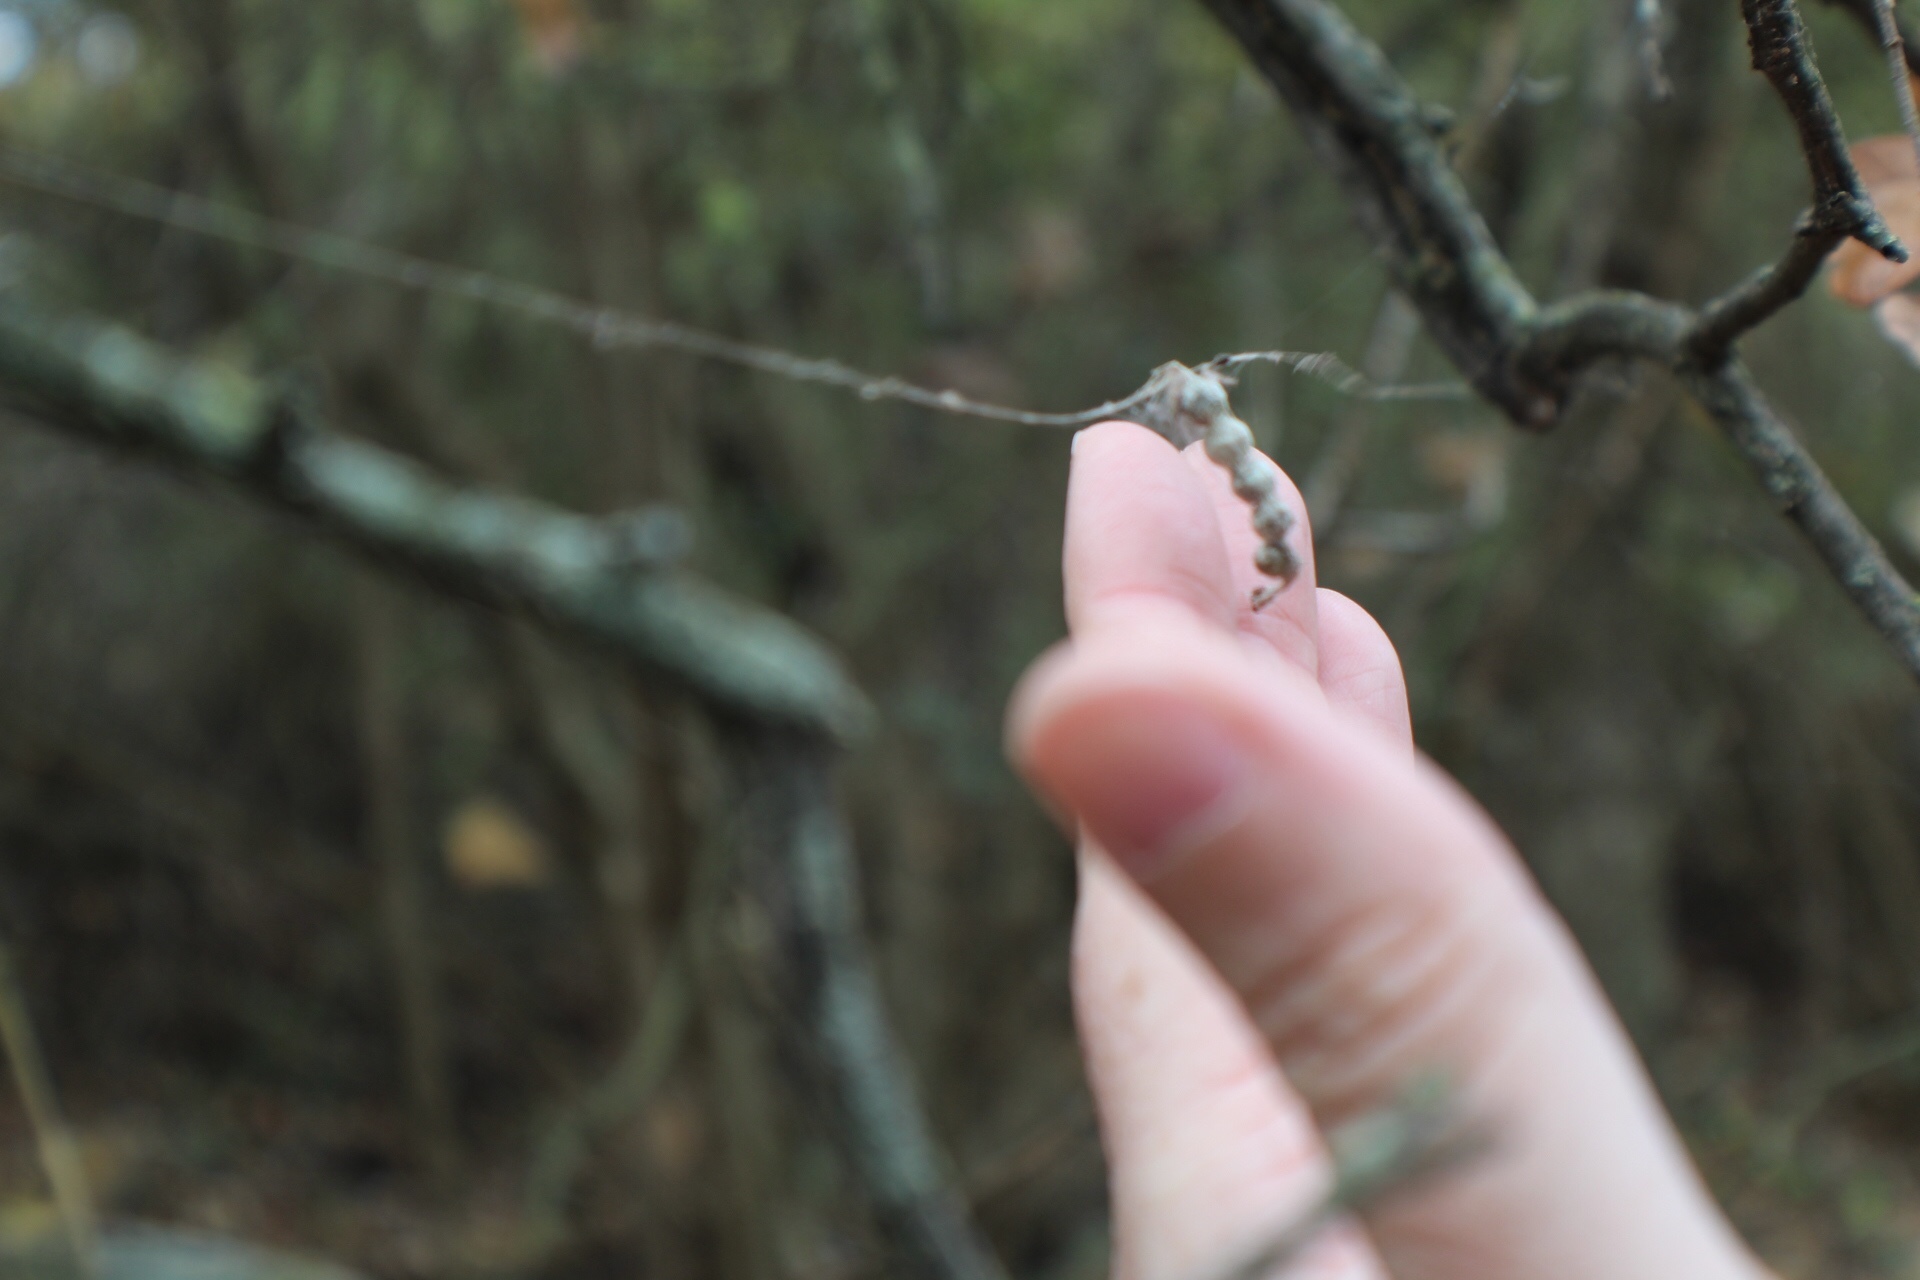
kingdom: Animalia
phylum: Arthropoda
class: Arachnida
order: Araneae
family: Araneidae
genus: Mecynogea
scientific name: Mecynogea lemniscata
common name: Orb weavers
